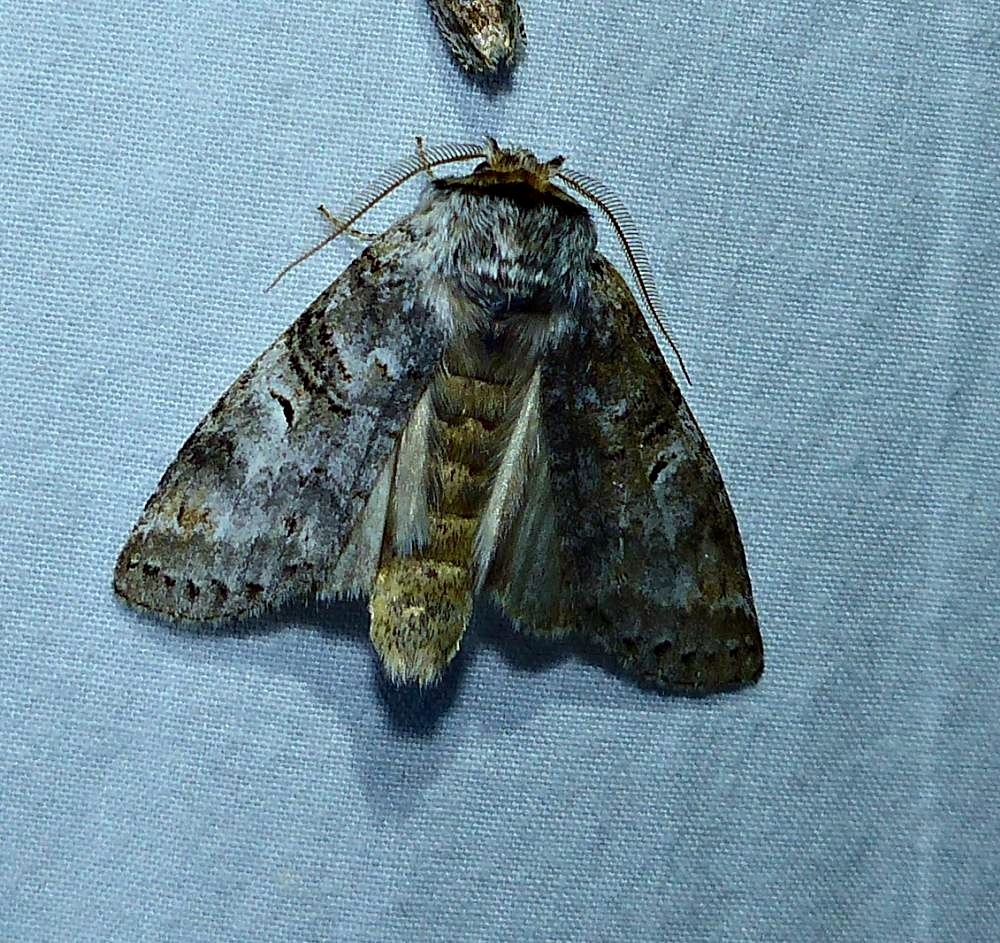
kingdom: Animalia
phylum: Arthropoda
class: Insecta
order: Lepidoptera
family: Notodontidae
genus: Ellida
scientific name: Ellida caniplaga
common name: Linden prominent
